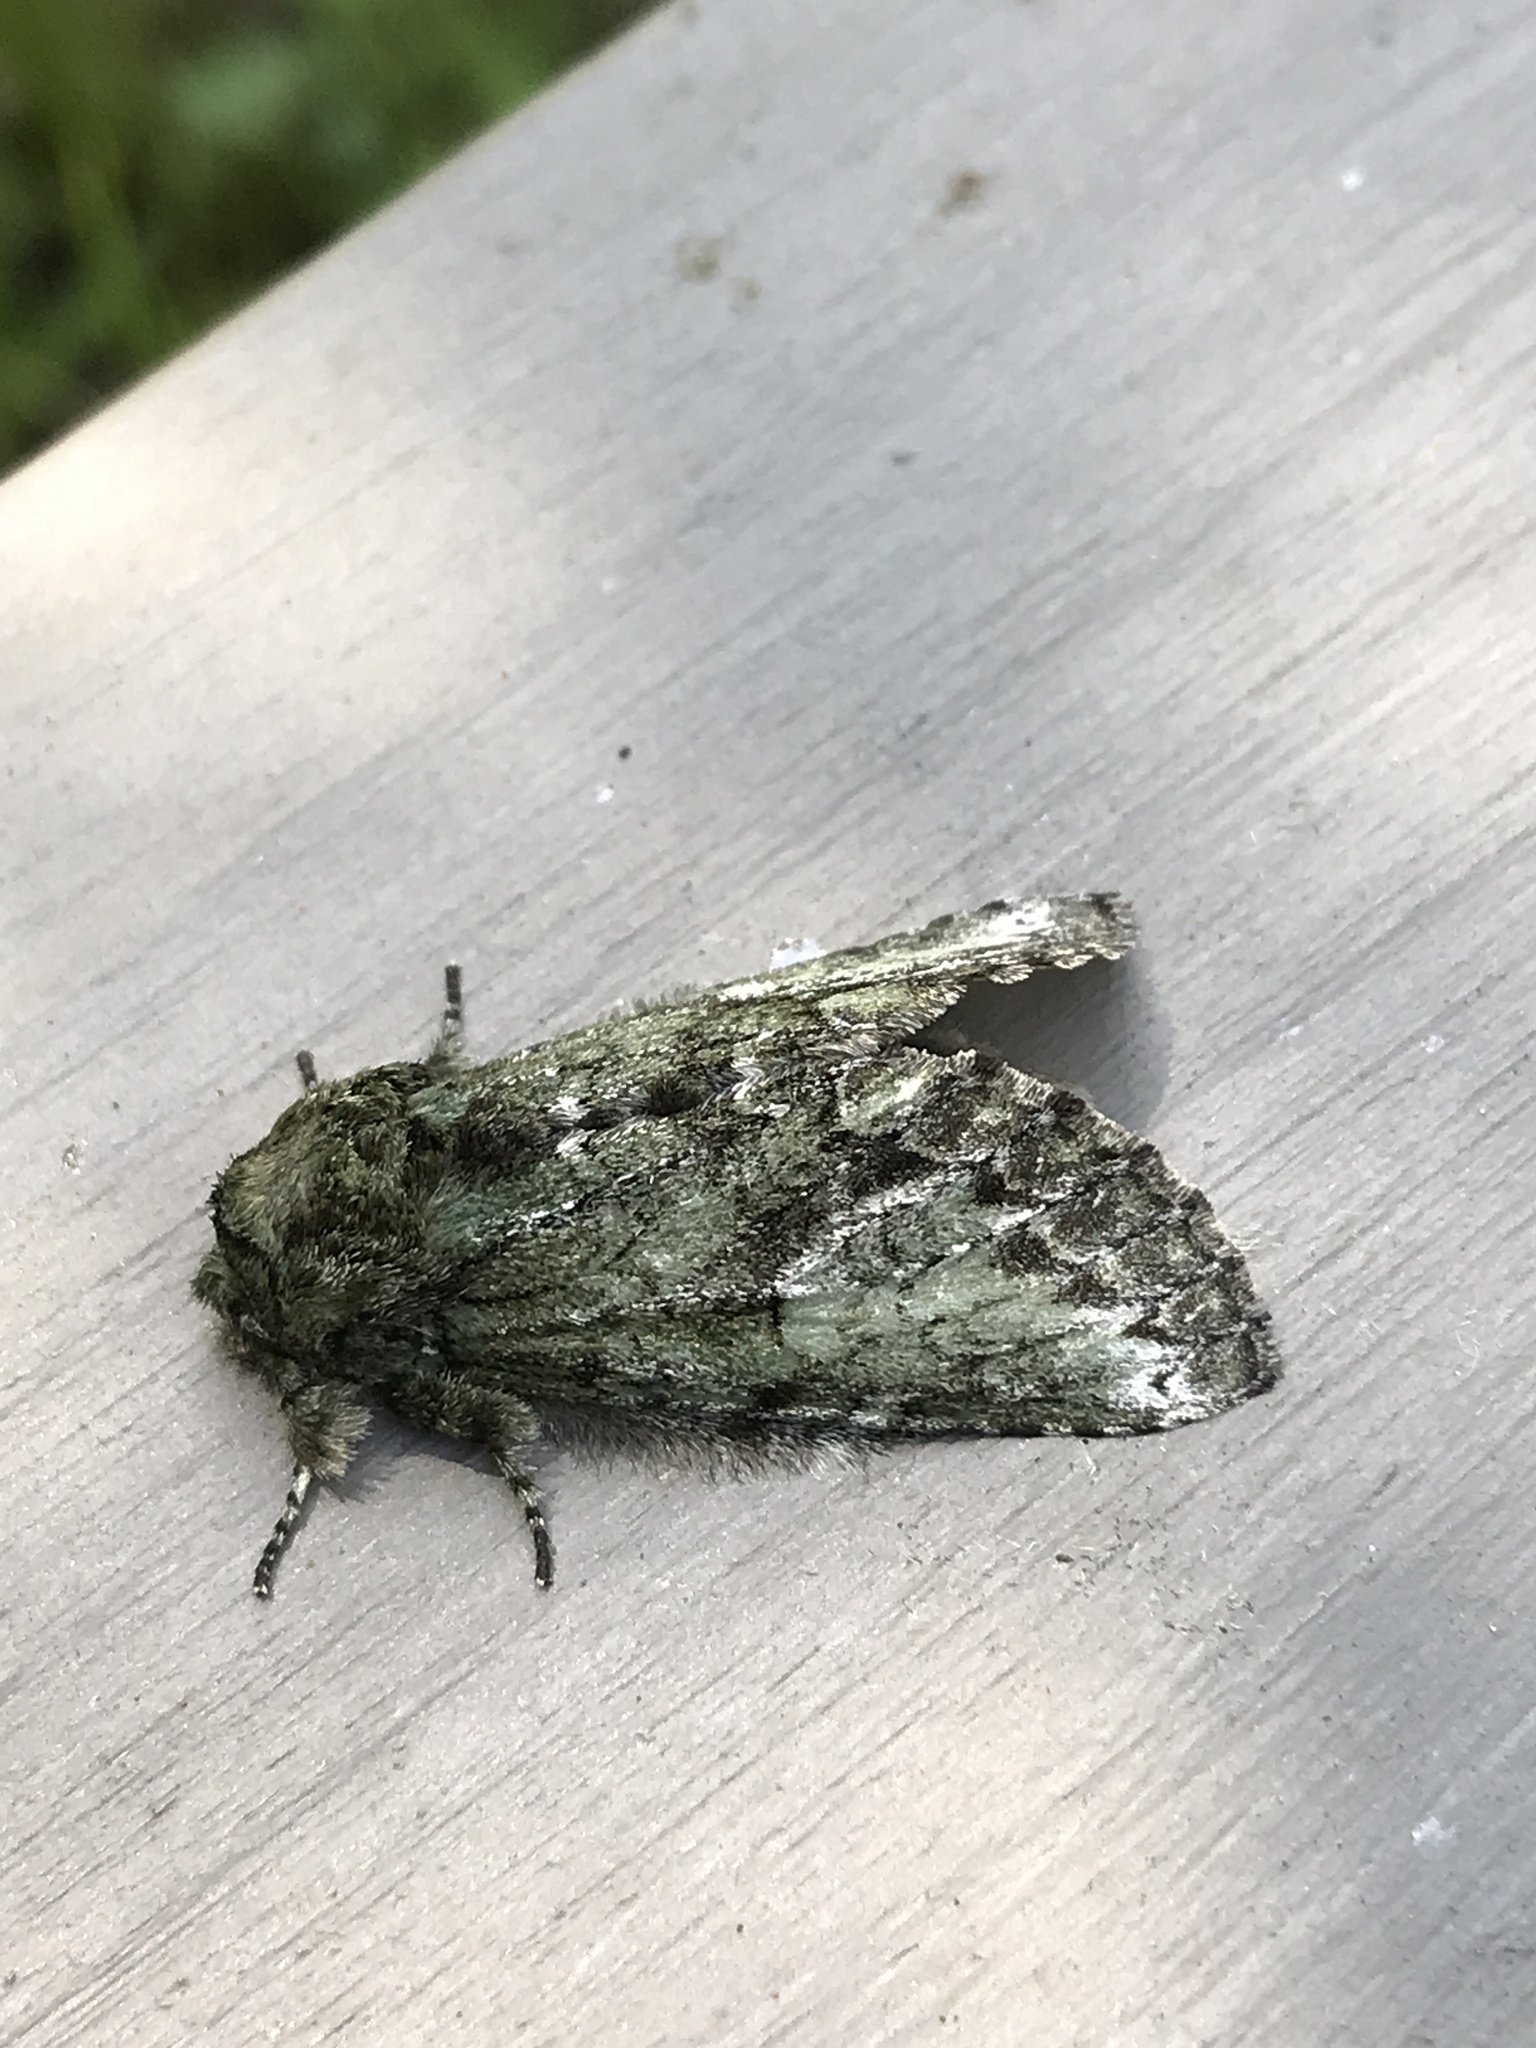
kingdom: Animalia
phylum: Arthropoda
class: Insecta
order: Lepidoptera
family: Notodontidae
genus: Heterocampa
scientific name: Heterocampa
